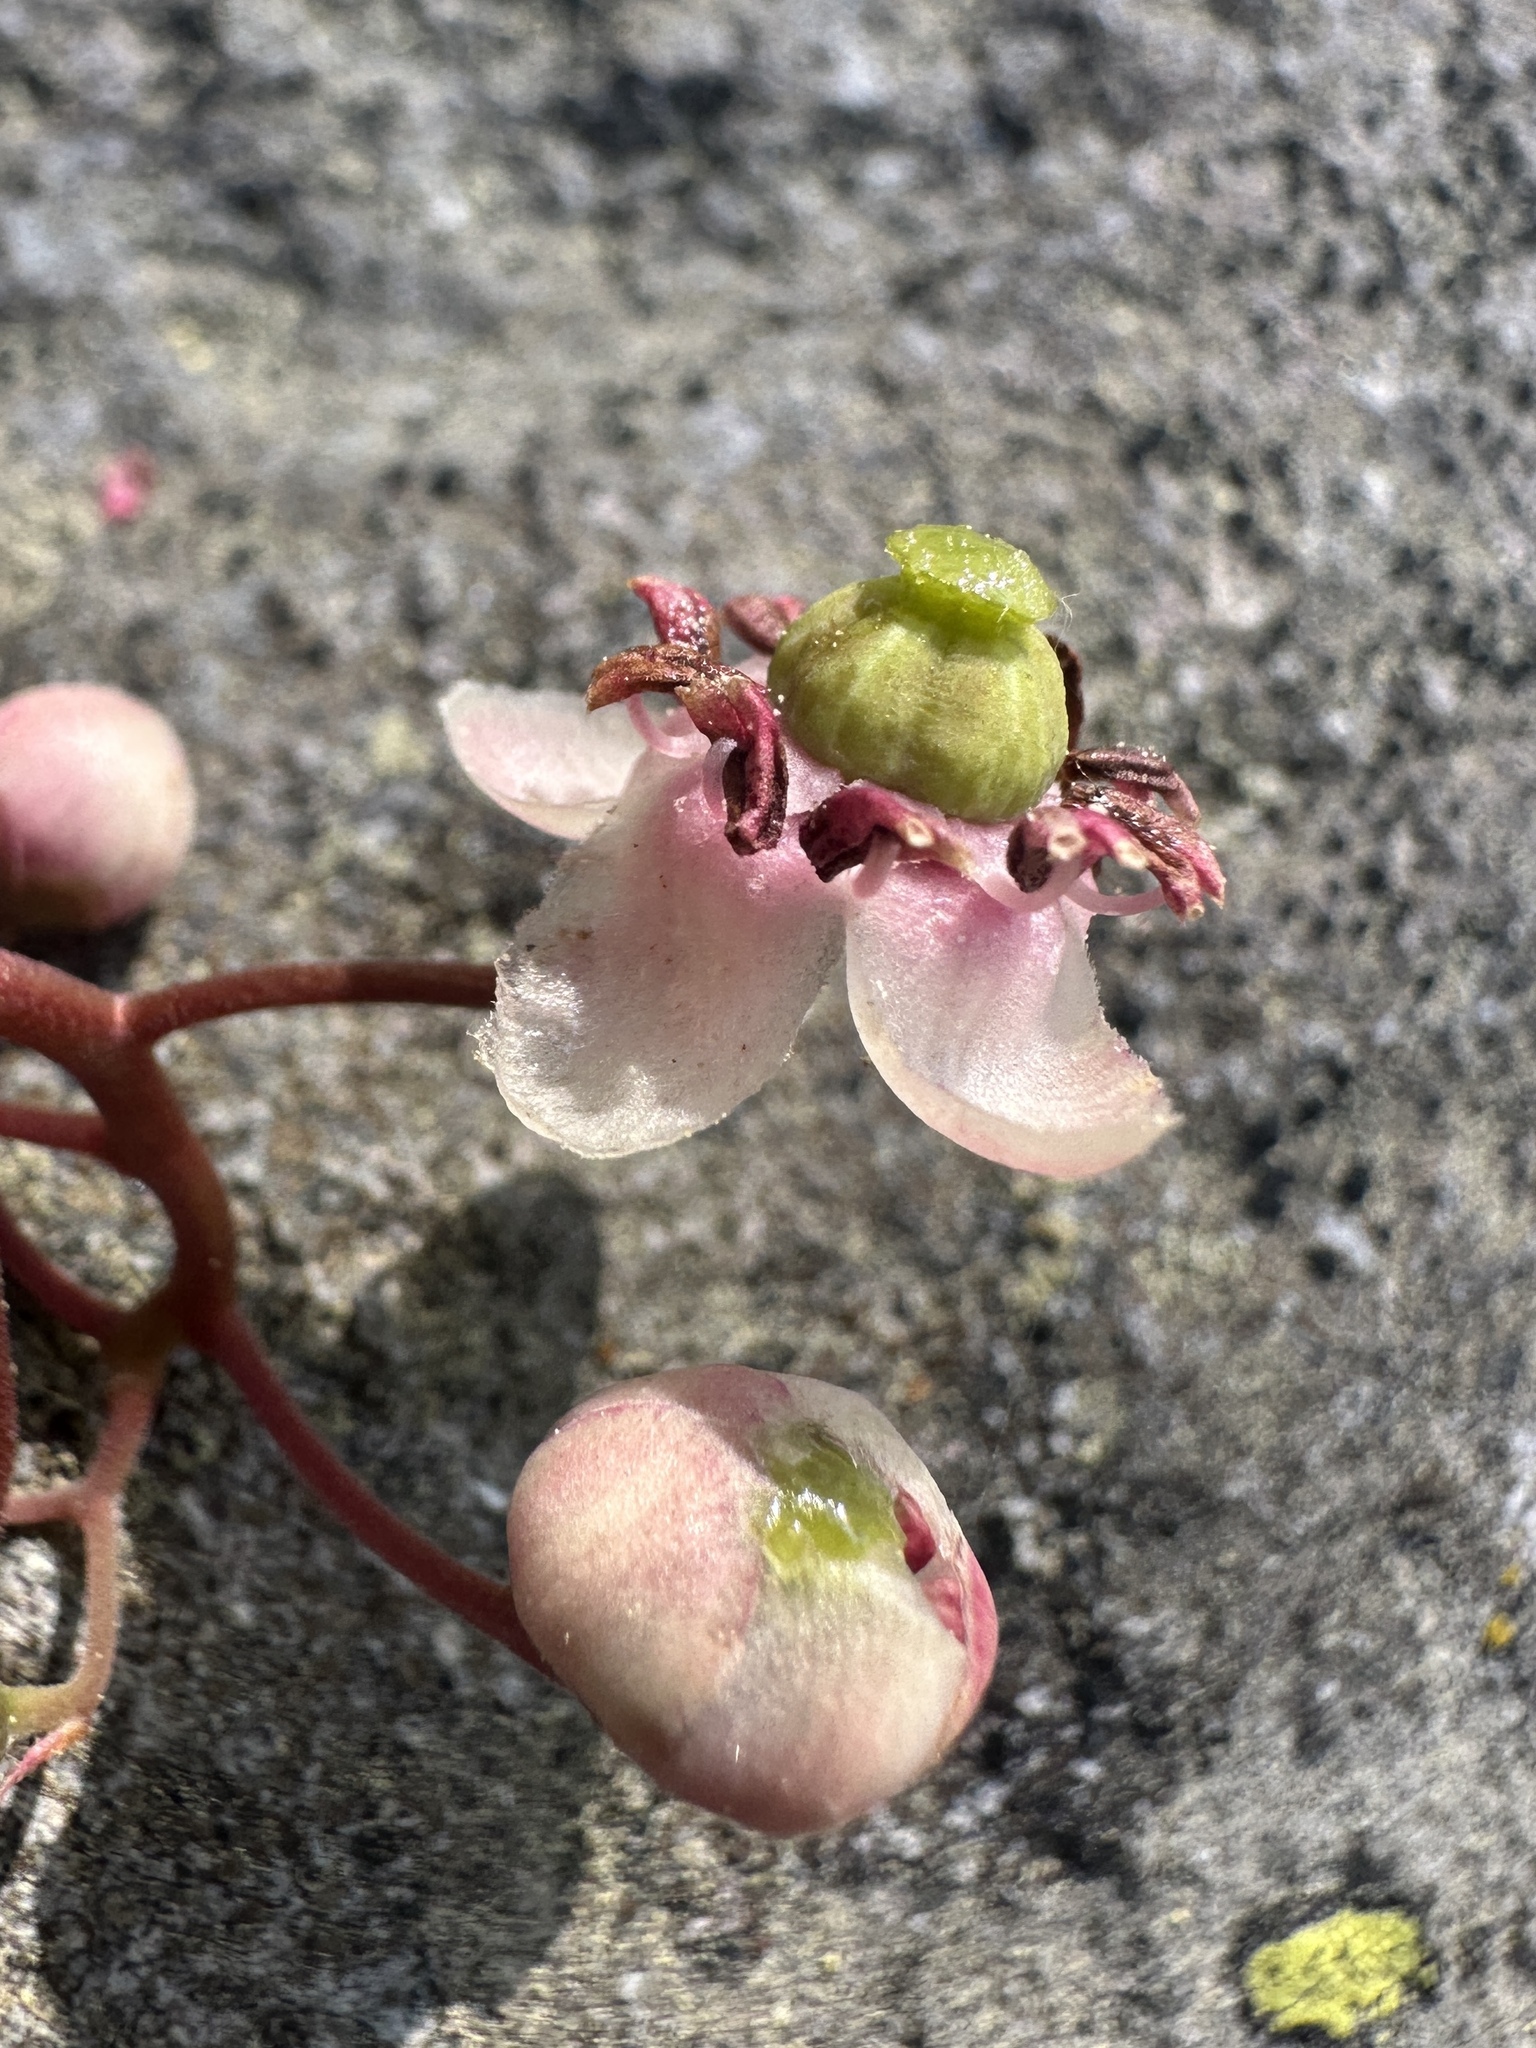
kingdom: Plantae
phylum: Tracheophyta
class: Magnoliopsida
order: Ericales
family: Ericaceae
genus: Chimaphila
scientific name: Chimaphila umbellata
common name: Pipsissewa
